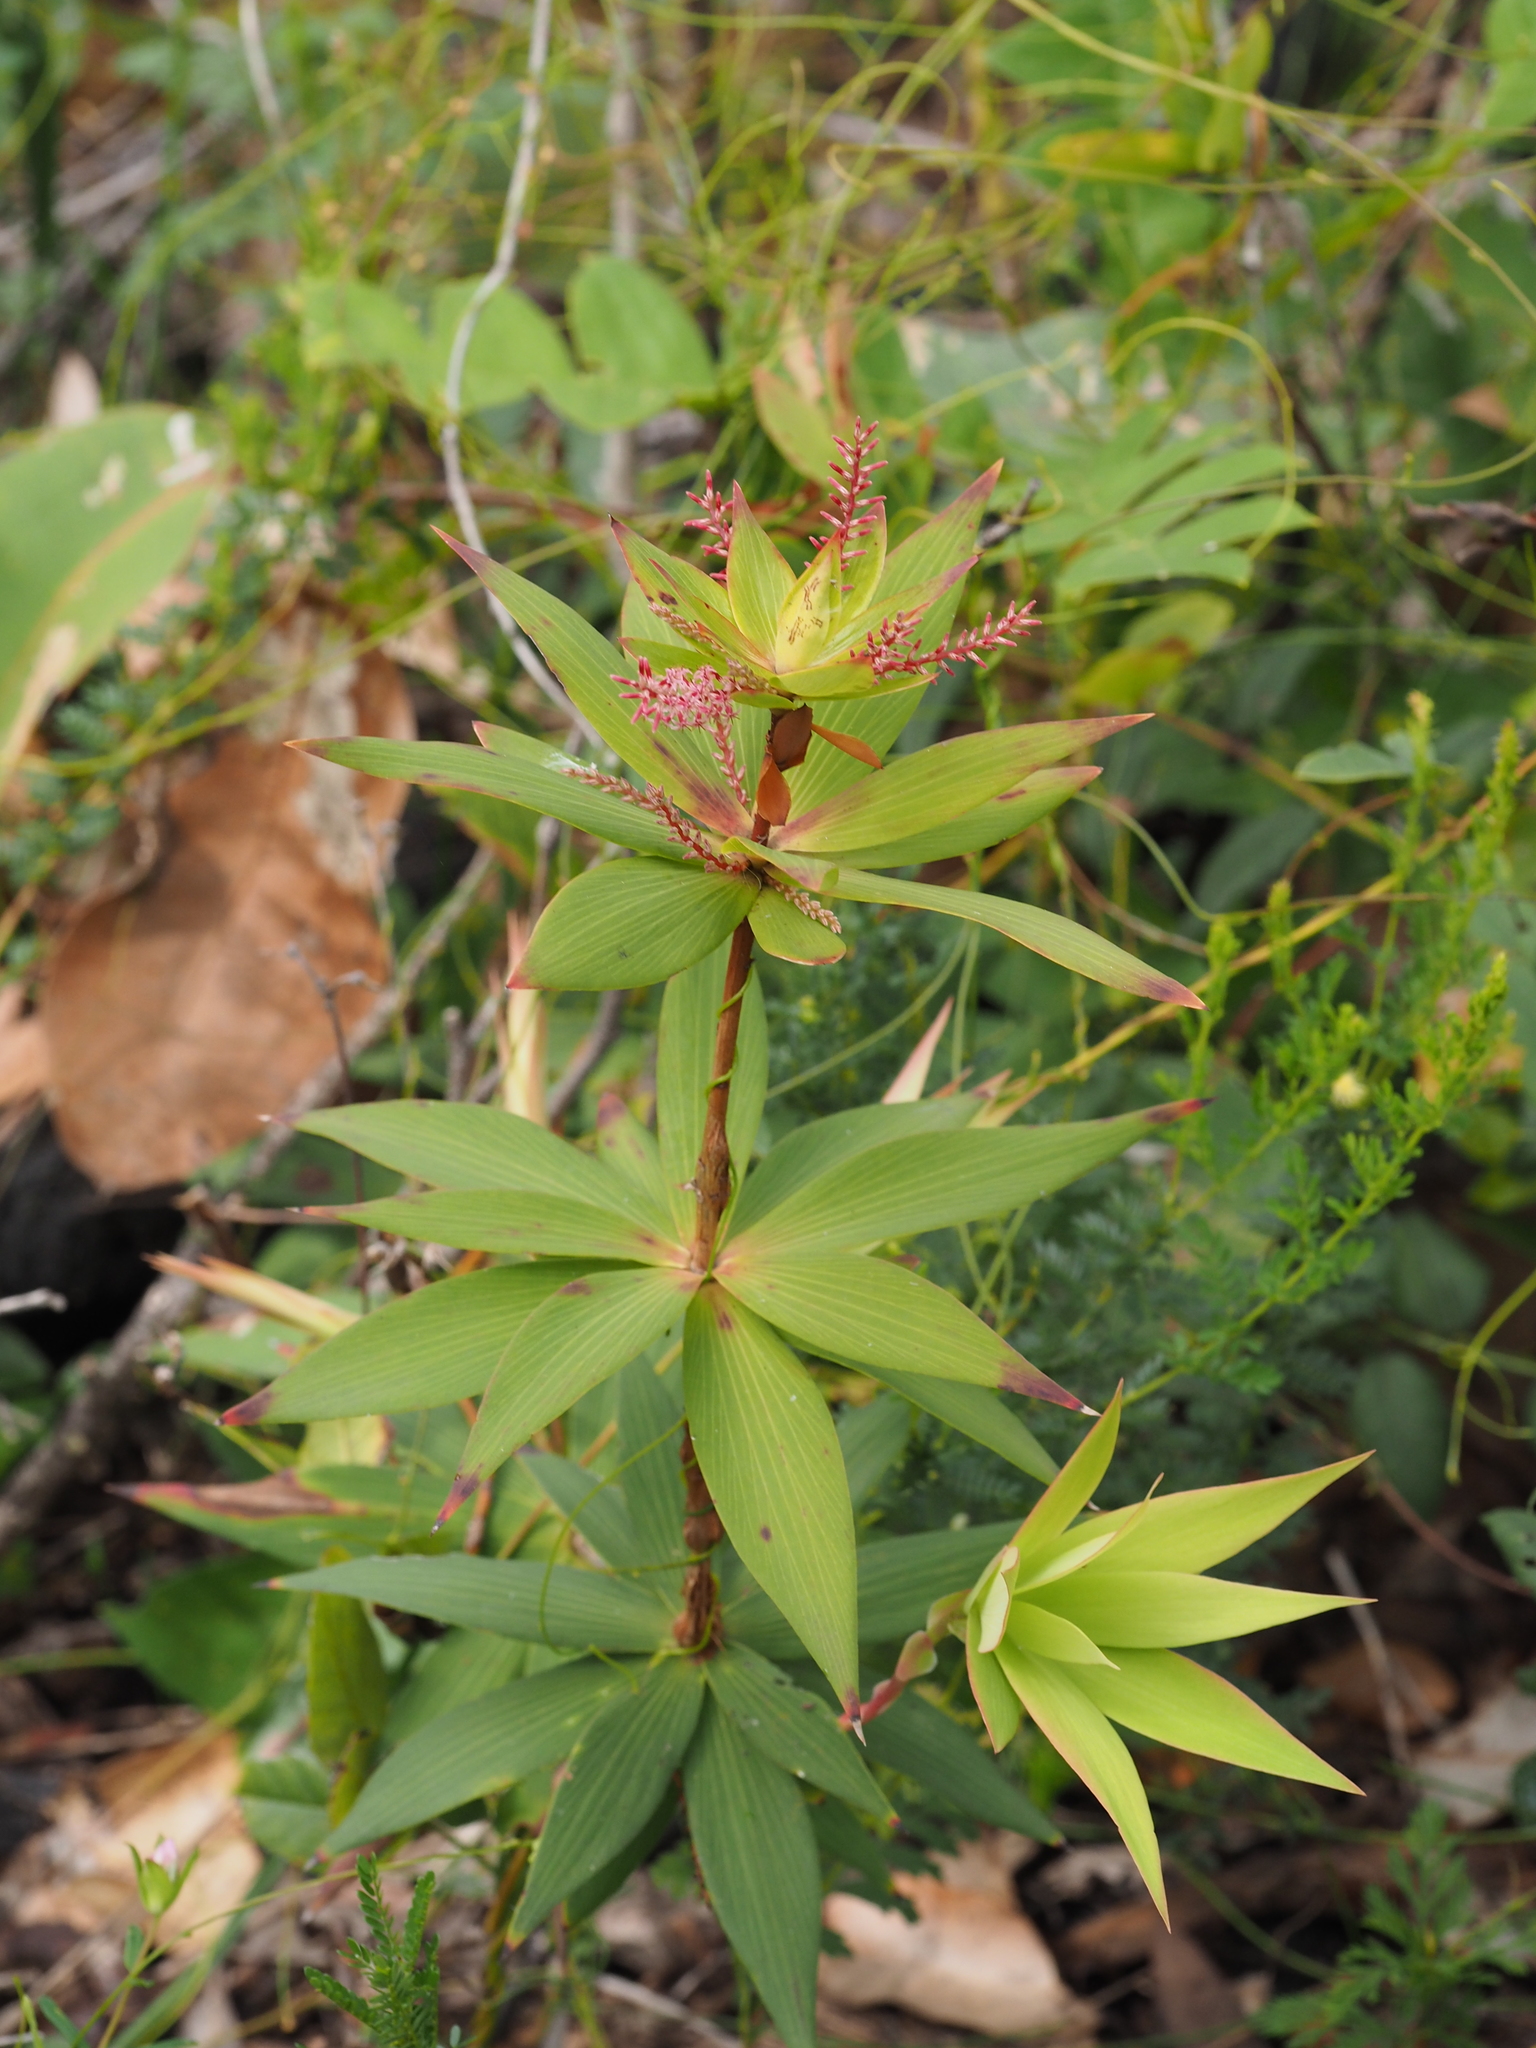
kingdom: Plantae
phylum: Tracheophyta
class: Magnoliopsida
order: Ericales
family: Ericaceae
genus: Leucopogon
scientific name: Leucopogon verticillatus
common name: Tasselshrub
